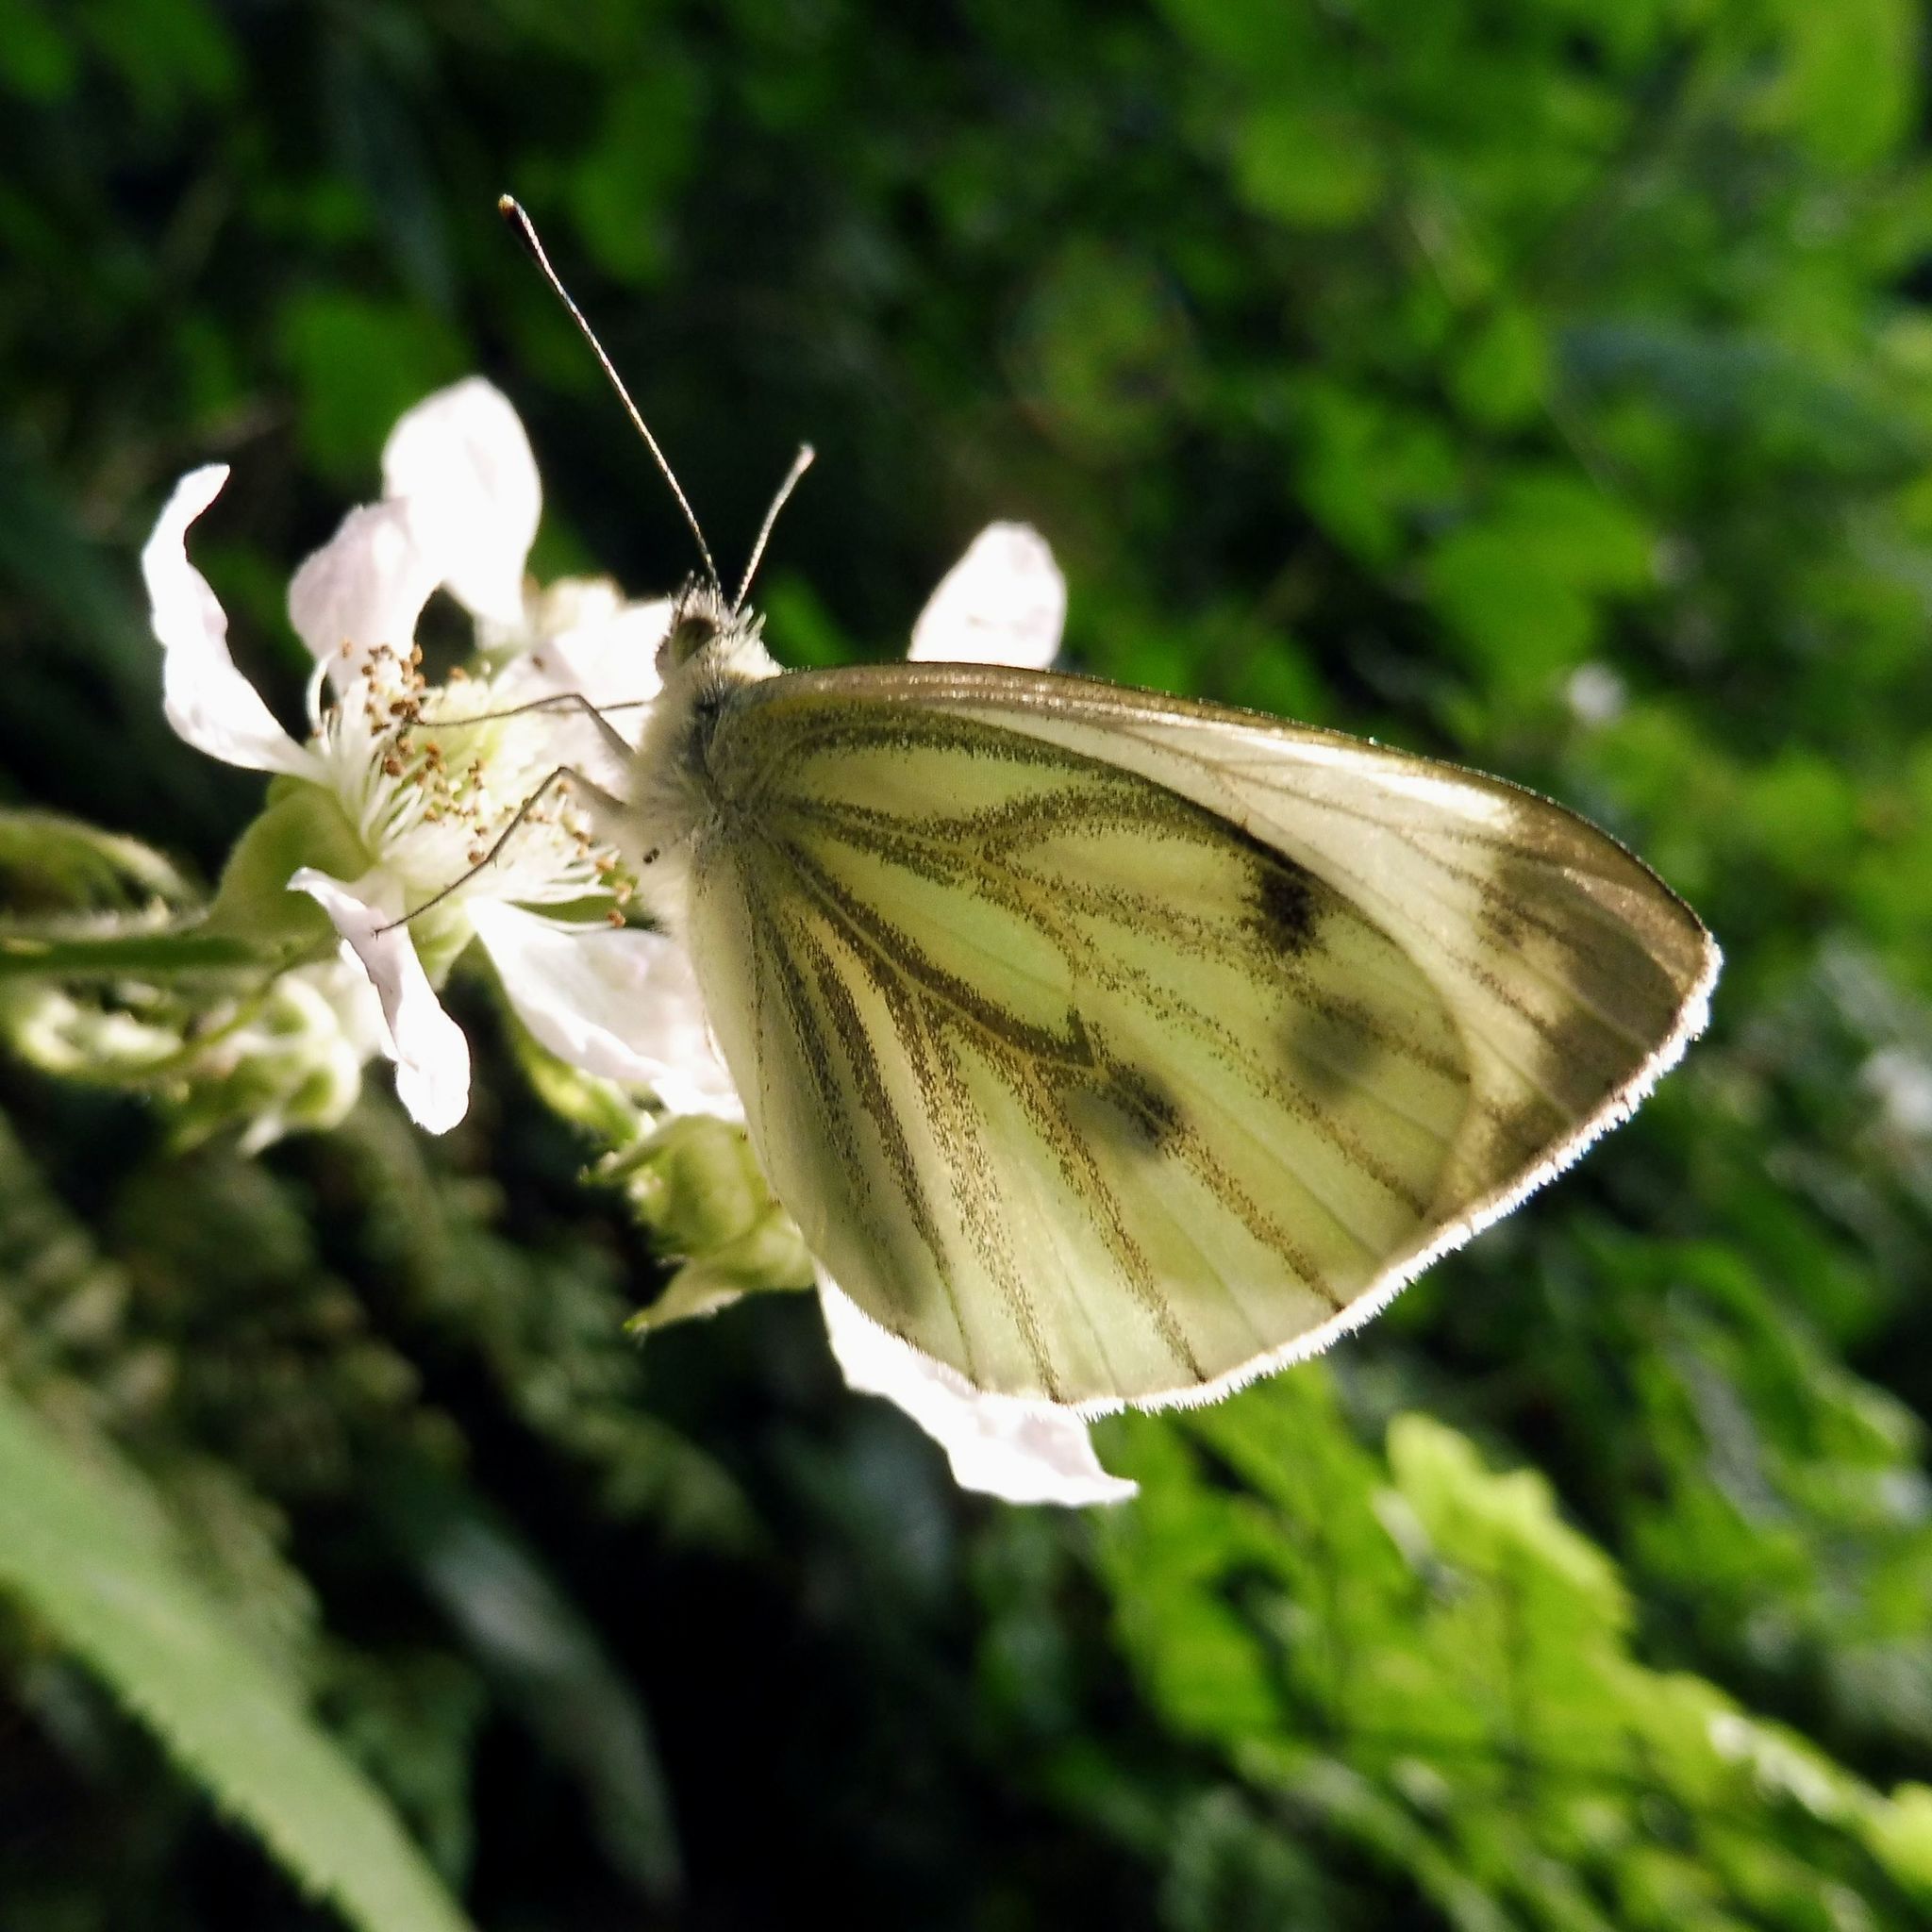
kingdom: Animalia
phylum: Arthropoda
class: Insecta
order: Lepidoptera
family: Pieridae
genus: Pieris
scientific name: Pieris napi
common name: Green-veined white
